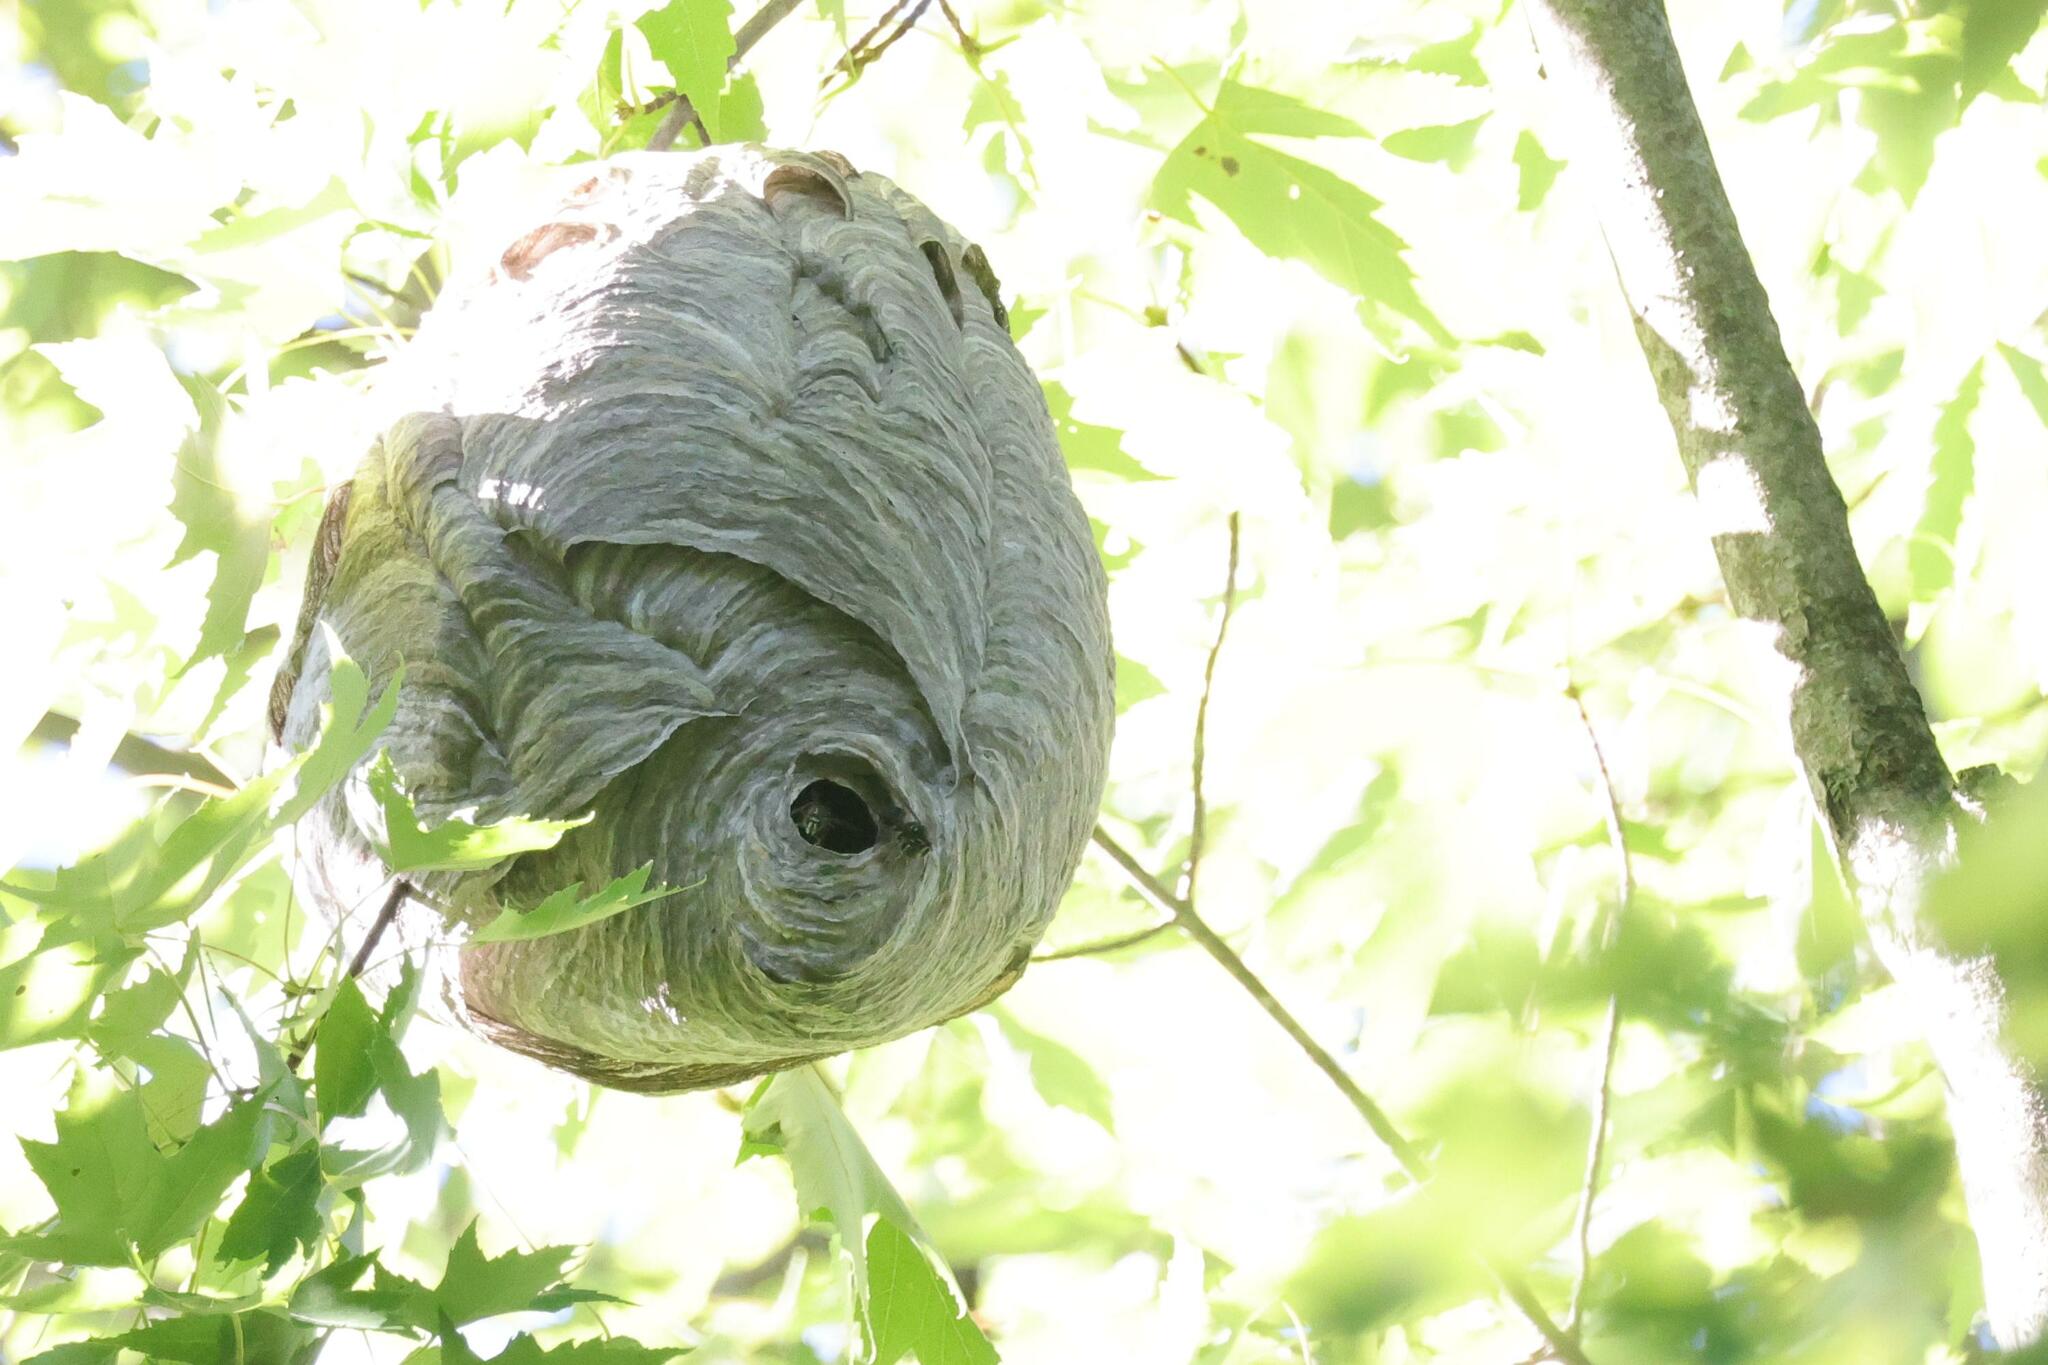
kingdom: Animalia
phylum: Arthropoda
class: Insecta
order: Hymenoptera
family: Vespidae
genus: Dolichovespula
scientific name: Dolichovespula maculata
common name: Bald-faced hornet
